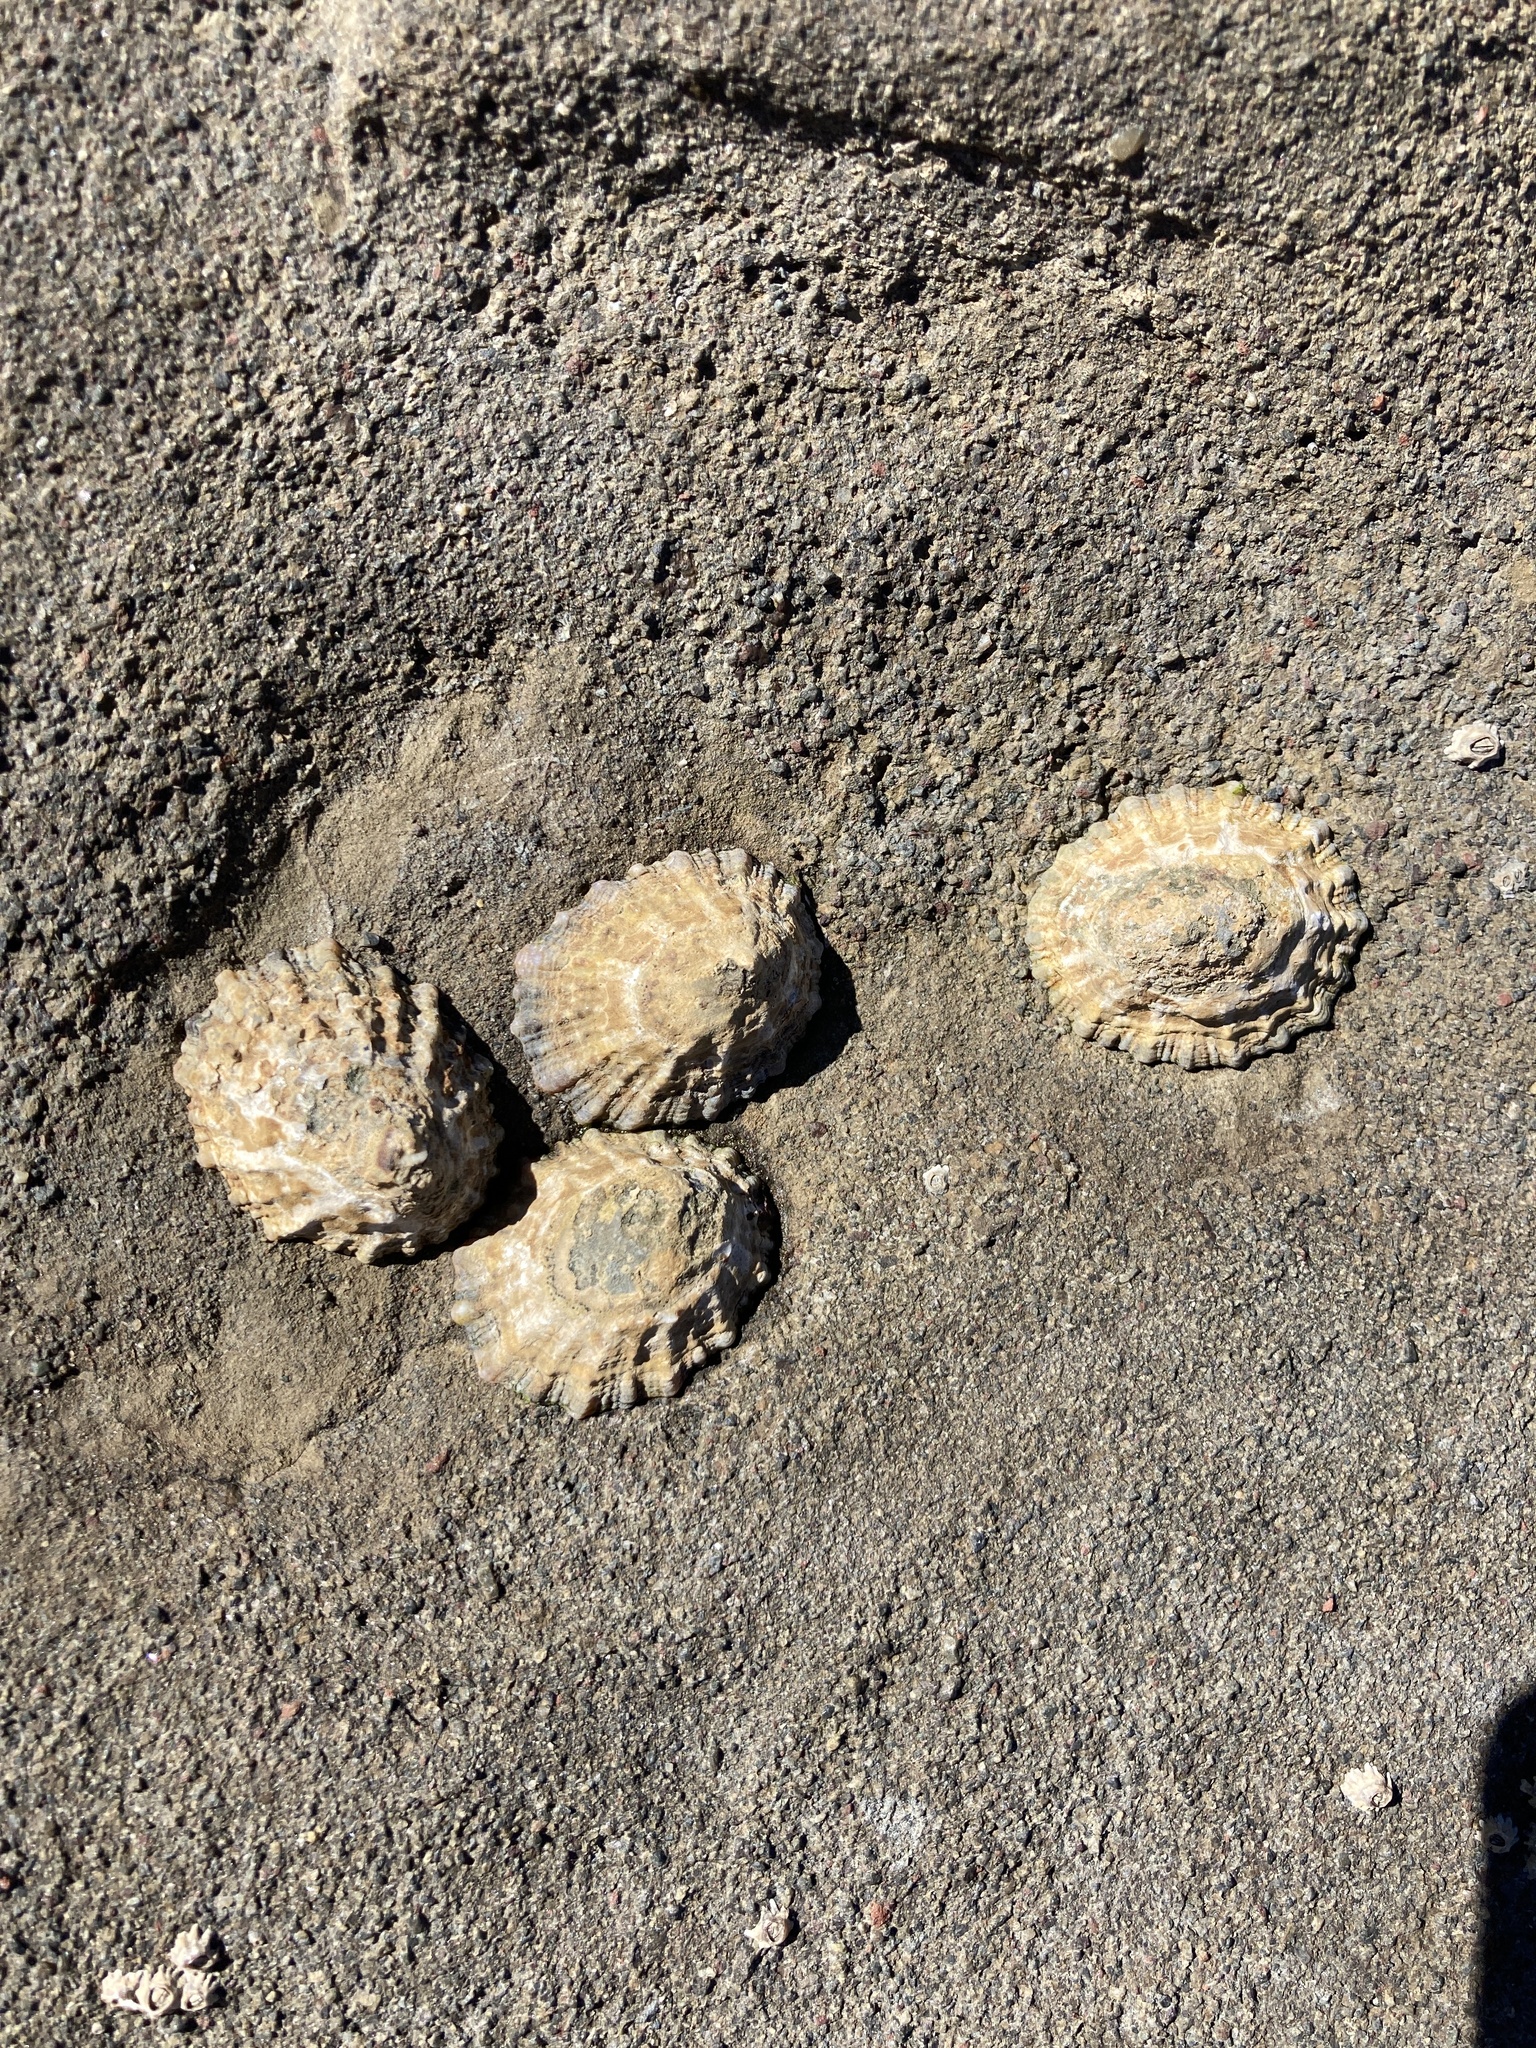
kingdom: Animalia
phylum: Mollusca
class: Gastropoda
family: Nacellidae
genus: Cellana
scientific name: Cellana ornata
